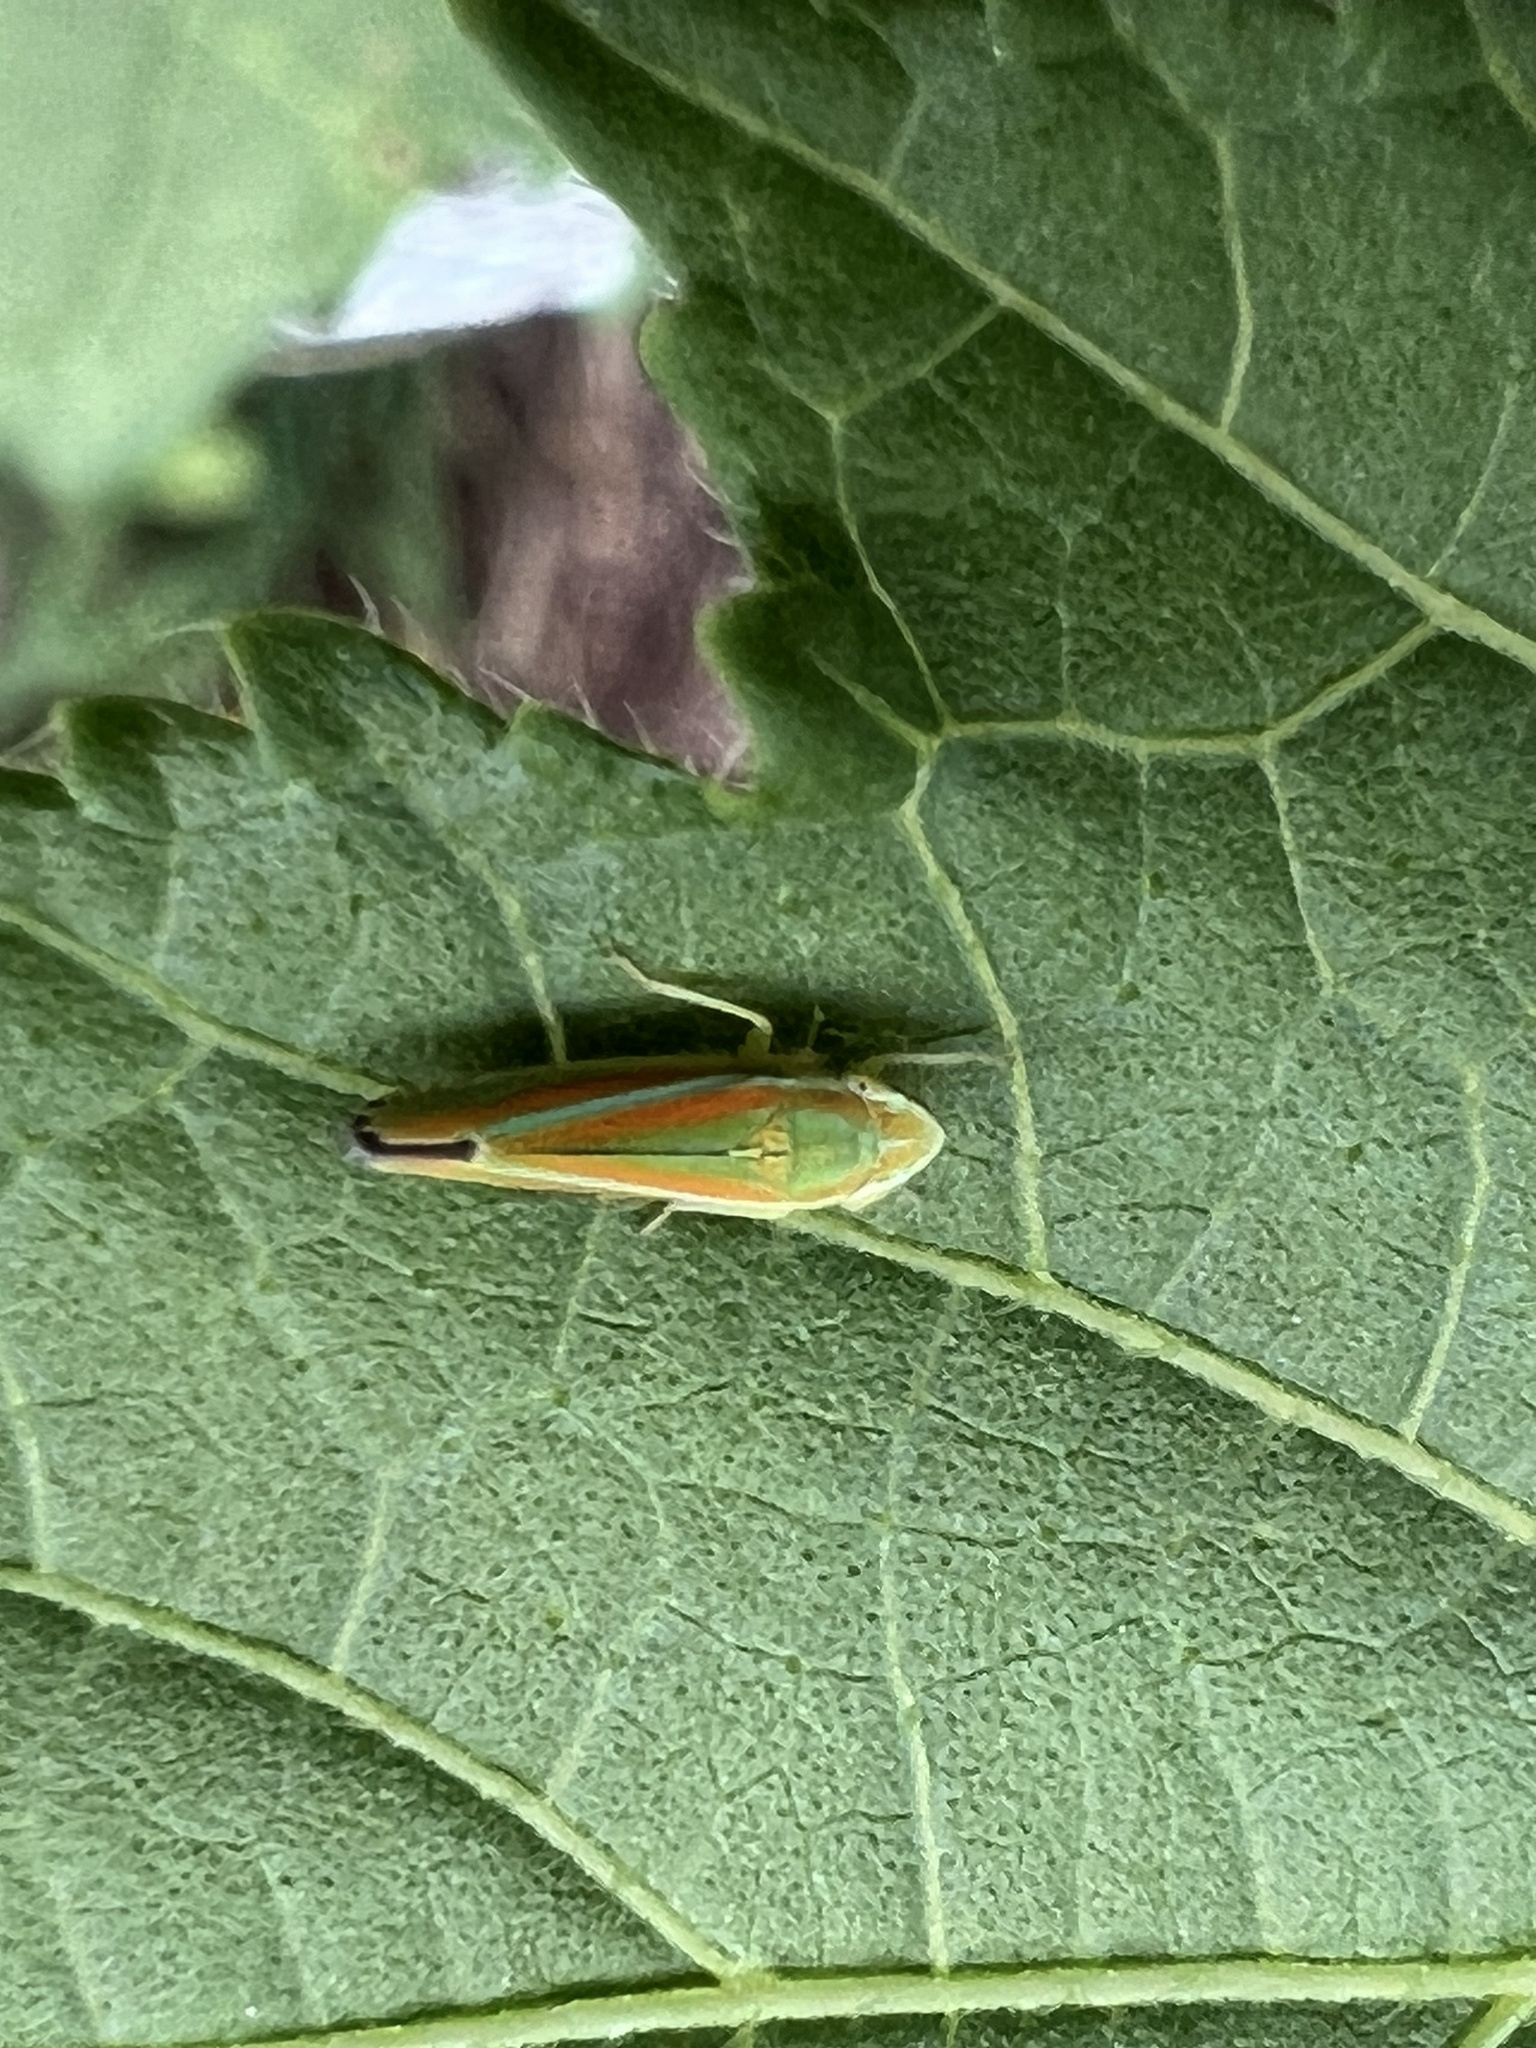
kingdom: Animalia
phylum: Arthropoda
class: Insecta
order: Hemiptera
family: Cicadellidae
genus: Graphocephala
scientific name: Graphocephala versuta
